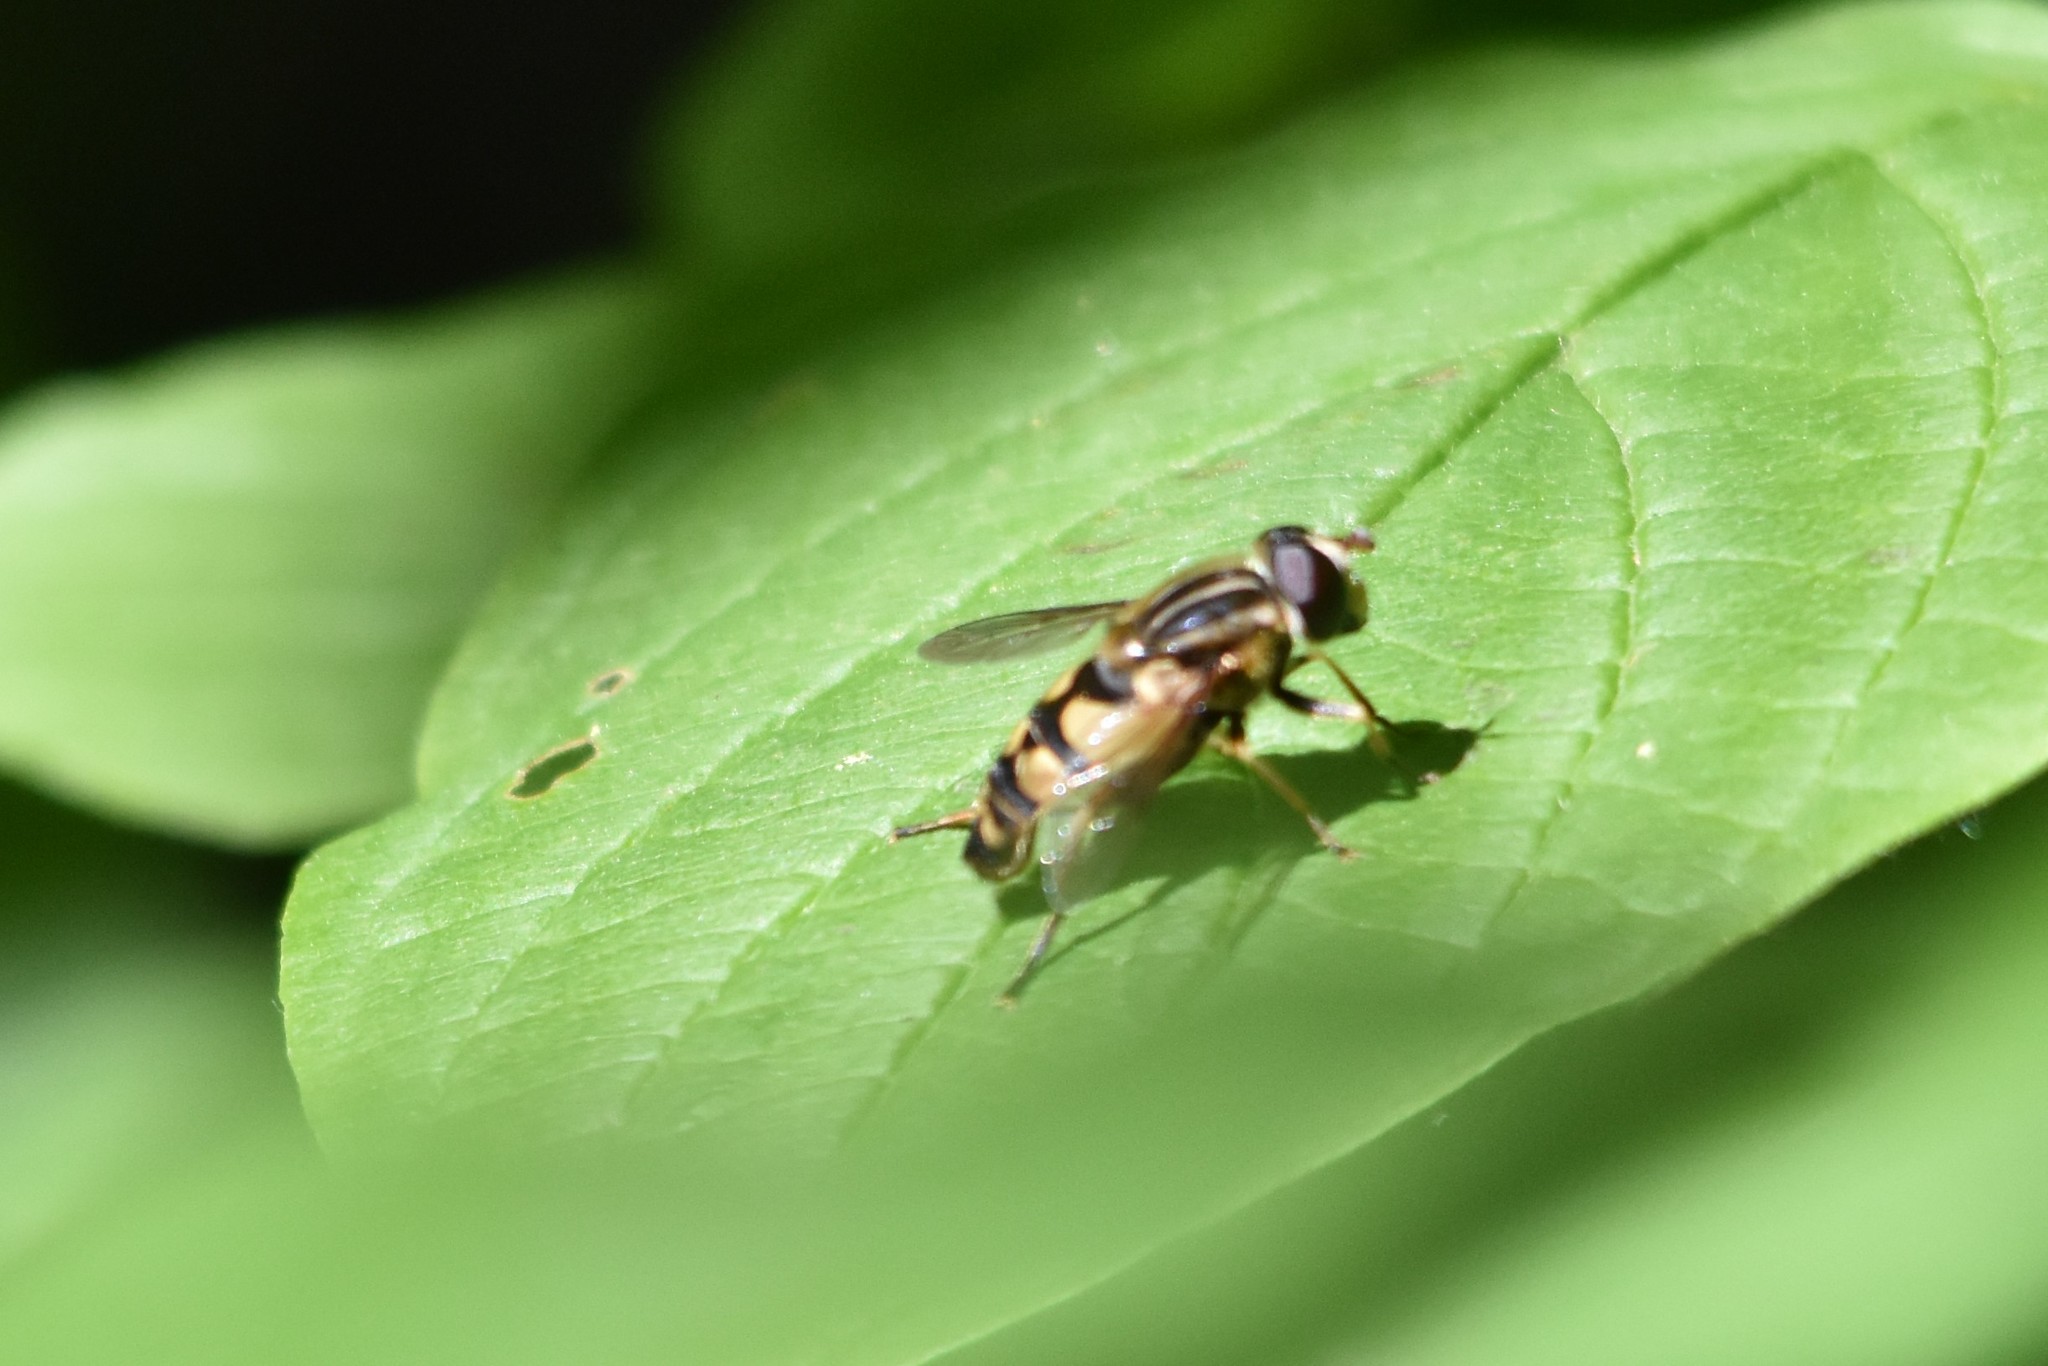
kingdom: Animalia
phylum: Arthropoda
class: Insecta
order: Diptera
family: Syrphidae
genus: Helophilus
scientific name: Helophilus fasciatus
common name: Narrow-headed marsh fly
